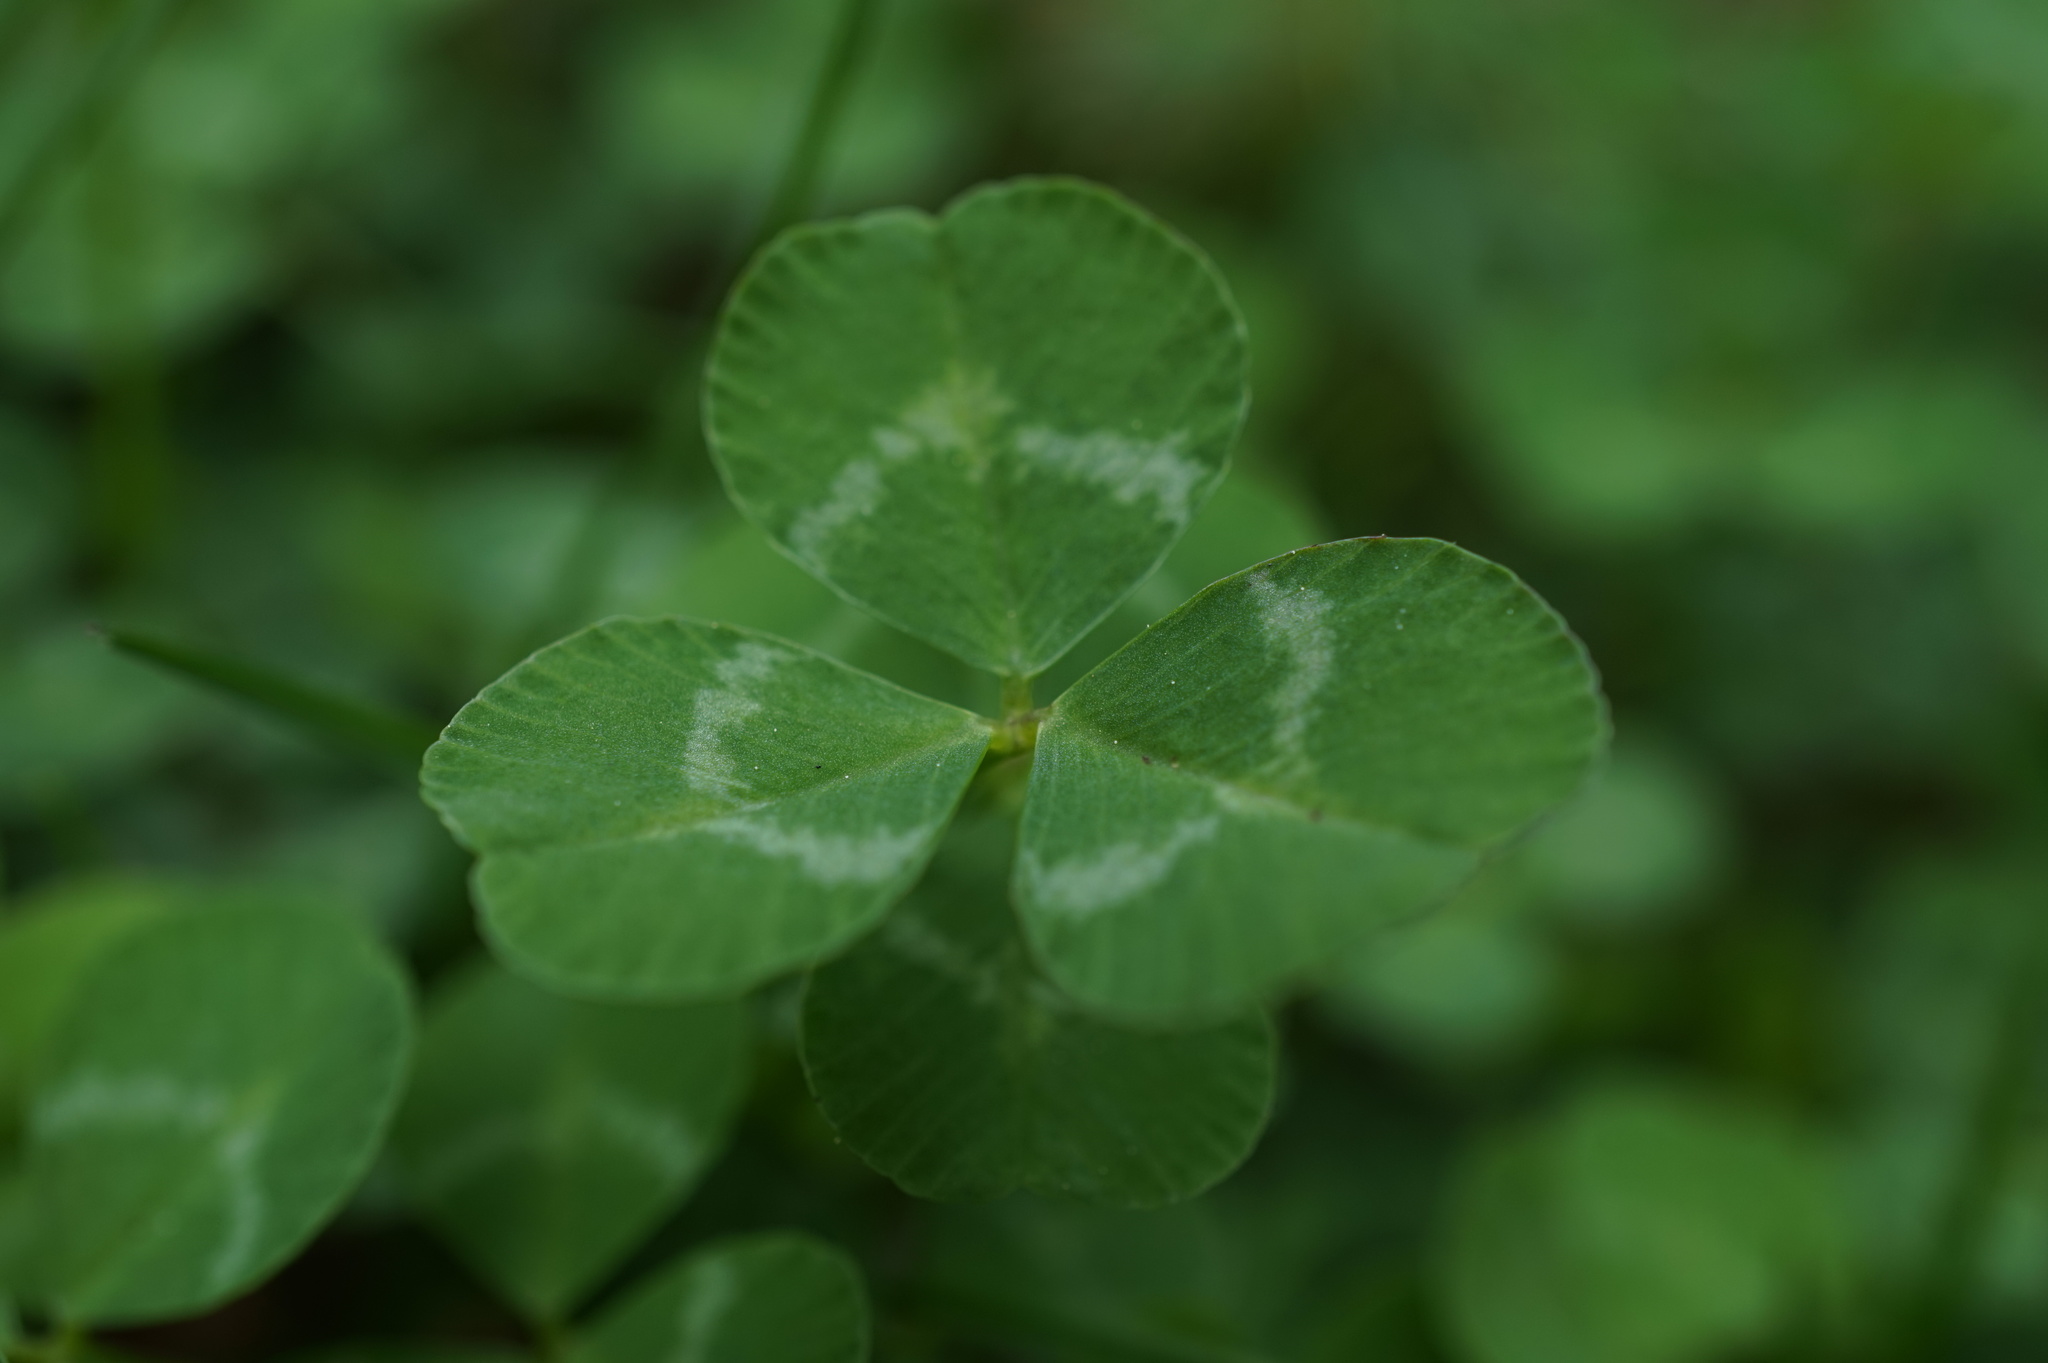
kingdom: Plantae
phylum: Tracheophyta
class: Magnoliopsida
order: Fabales
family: Fabaceae
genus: Trifolium
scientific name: Trifolium repens
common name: White clover
